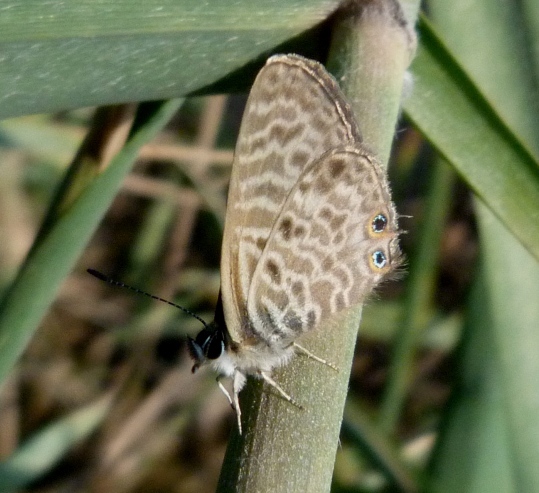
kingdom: Animalia
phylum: Arthropoda
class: Insecta
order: Lepidoptera
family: Lycaenidae
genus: Leptotes
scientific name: Leptotes pirithous
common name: Lang's short-tailed blue
